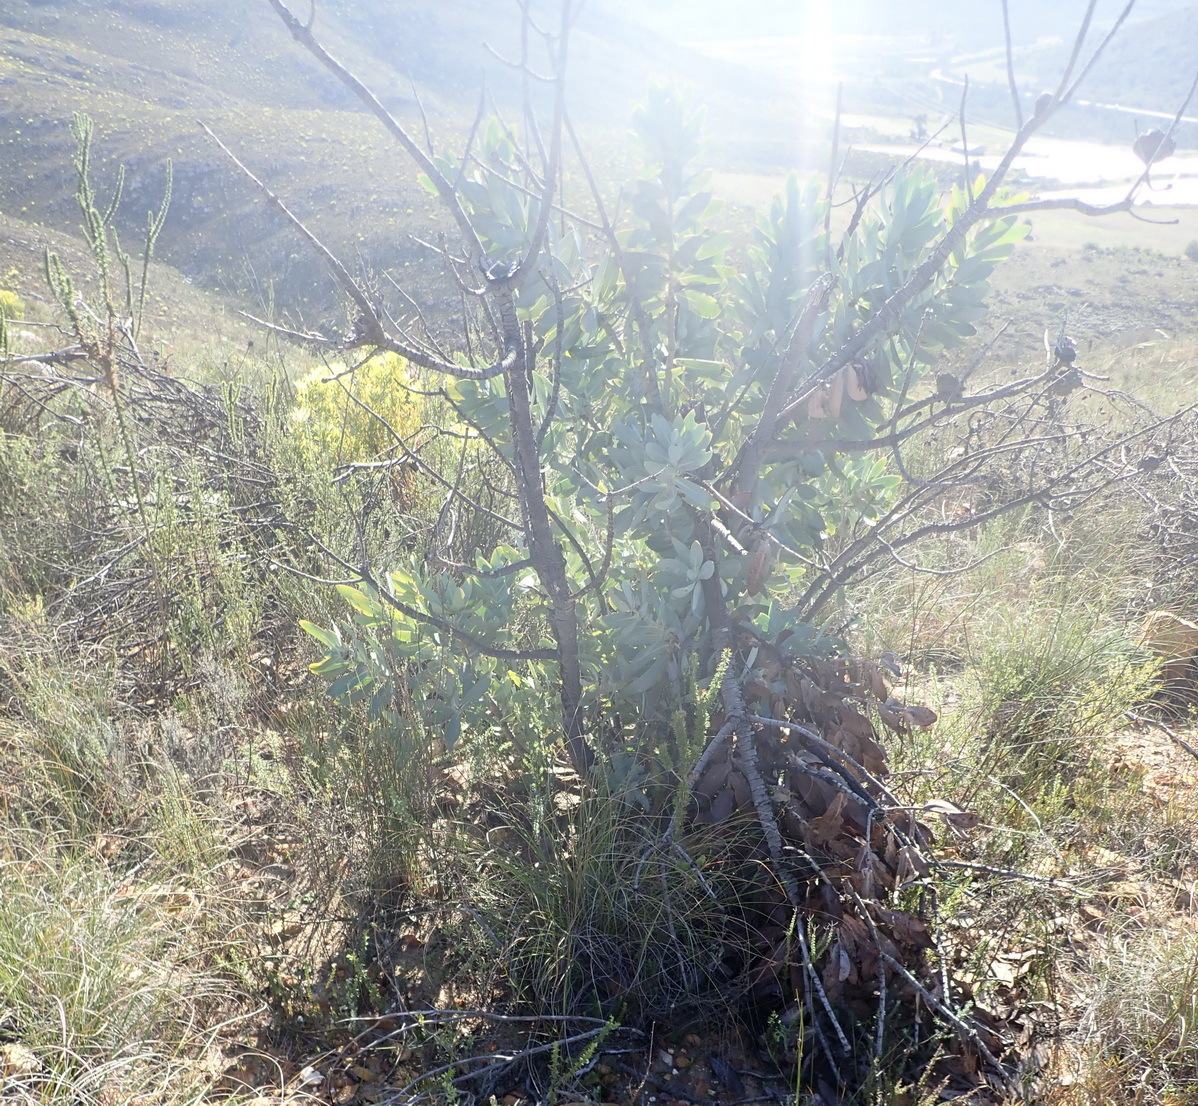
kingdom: Plantae
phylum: Tracheophyta
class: Magnoliopsida
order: Proteales
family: Proteaceae
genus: Protea
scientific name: Protea nitida
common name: Tree protea
